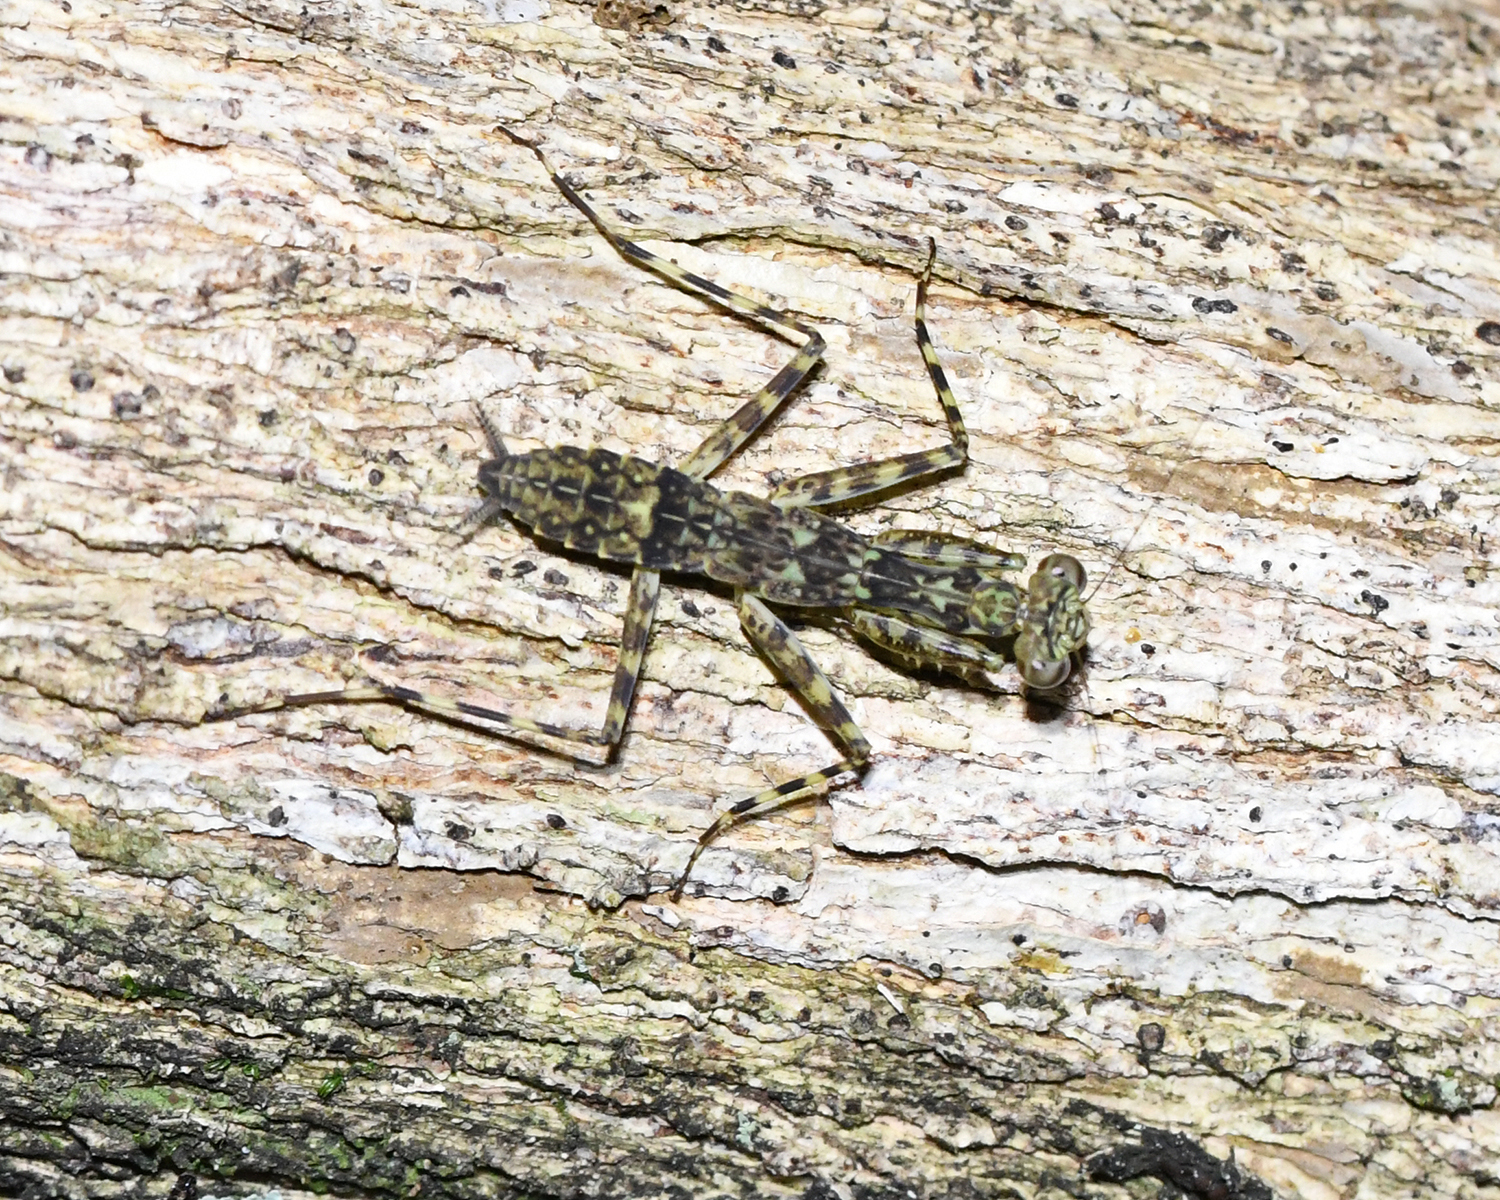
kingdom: Animalia
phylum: Arthropoda
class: Insecta
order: Mantodea
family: Liturgusidae
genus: Liturgusa
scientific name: Liturgusa trinidadensis
